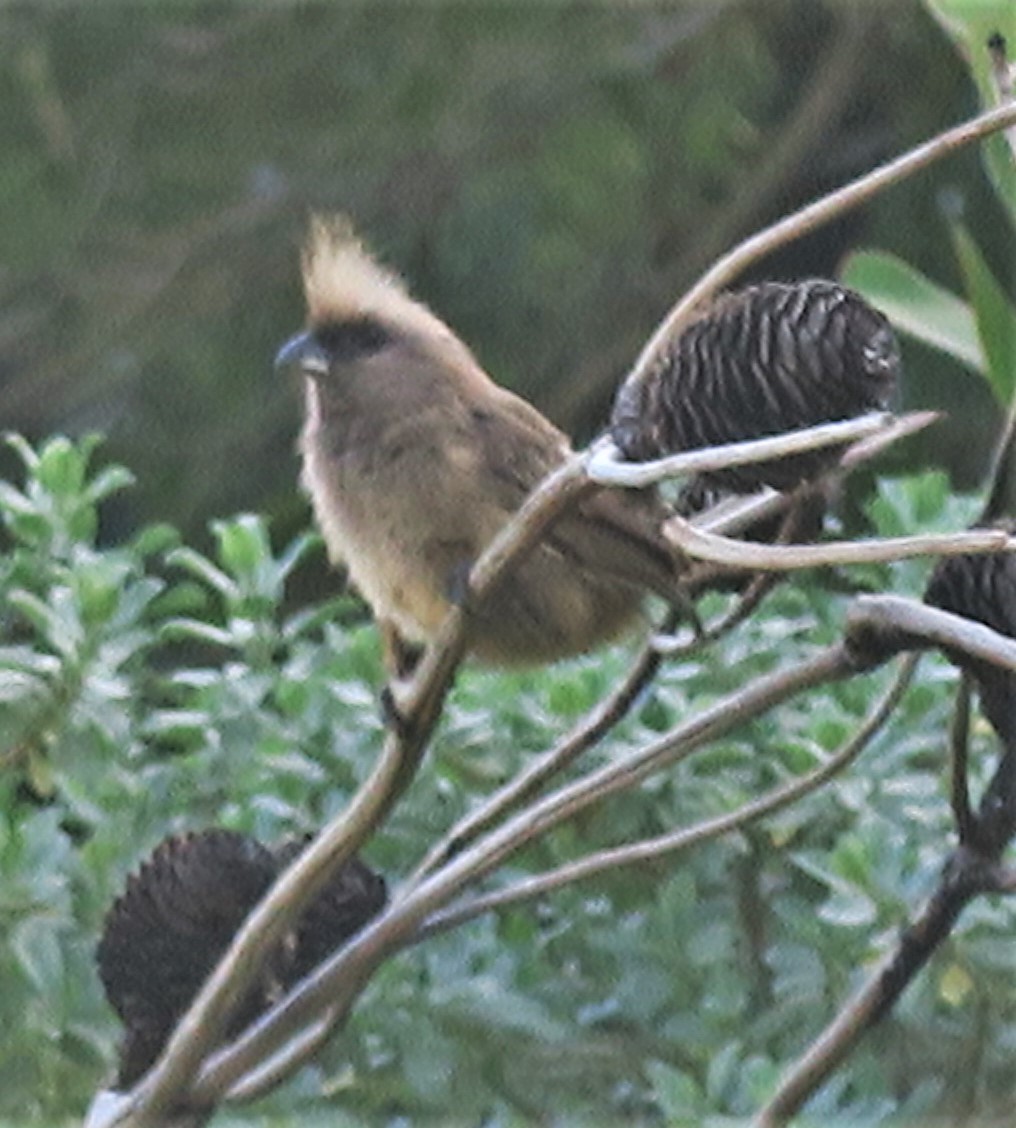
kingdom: Animalia
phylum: Chordata
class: Aves
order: Coliiformes
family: Coliidae
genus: Colius
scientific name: Colius striatus
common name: Speckled mousebird
